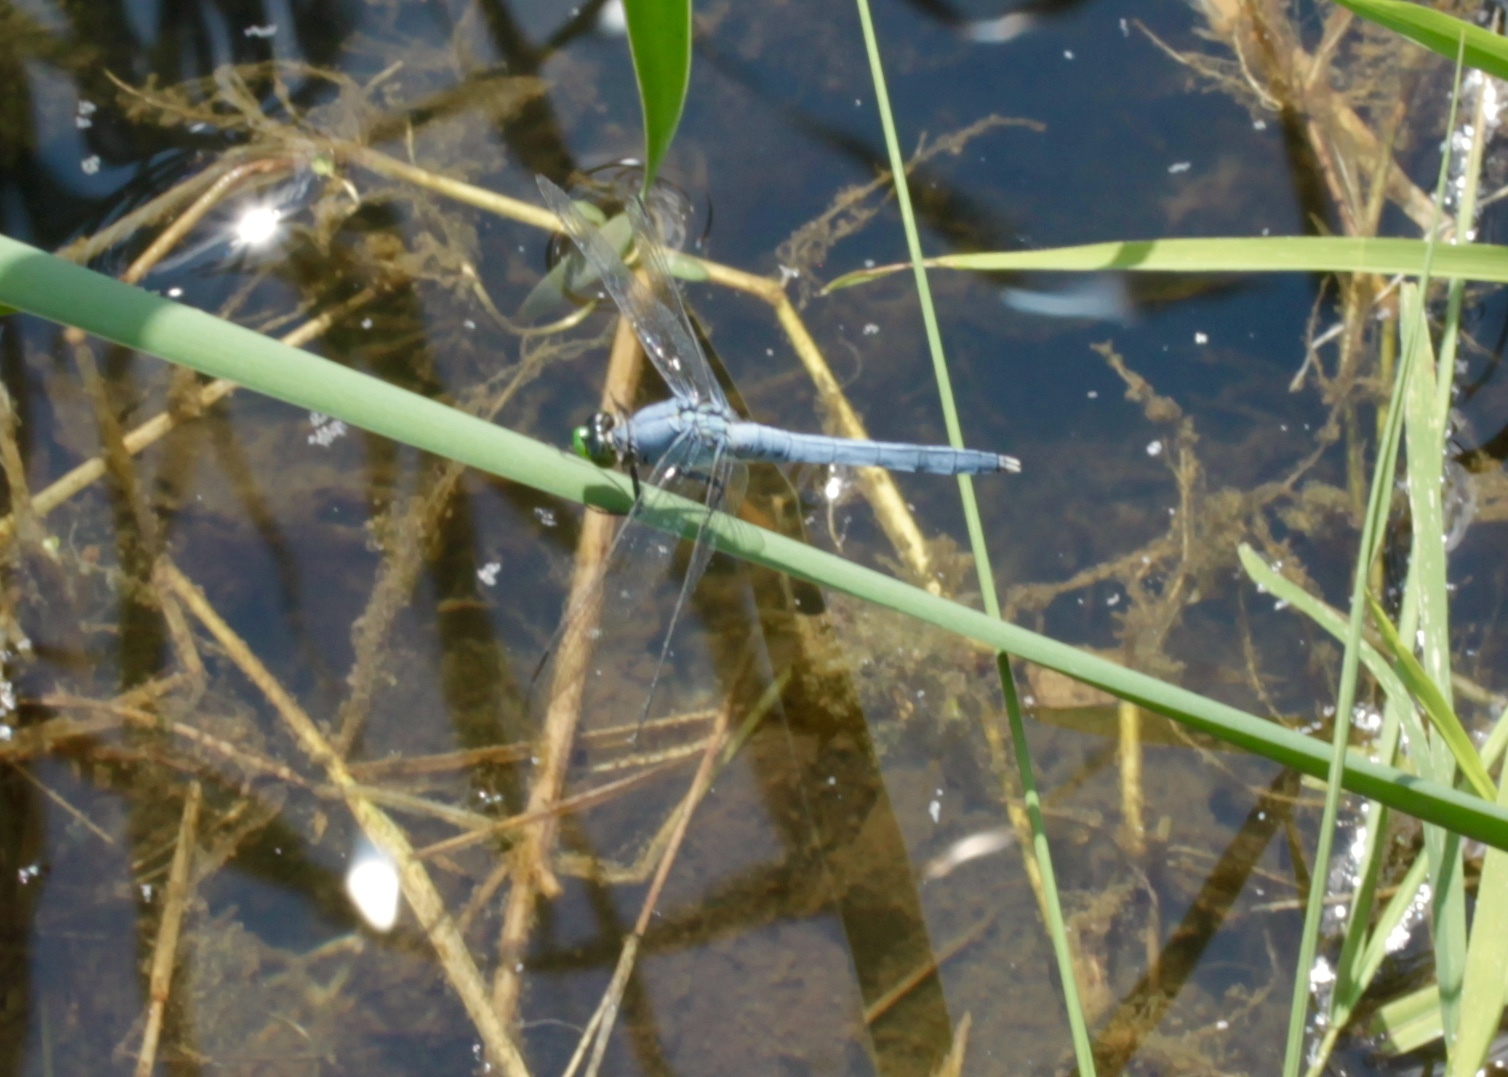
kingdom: Animalia
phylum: Arthropoda
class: Insecta
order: Odonata
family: Libellulidae
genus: Erythemis
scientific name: Erythemis simplicicollis
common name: Eastern pondhawk
